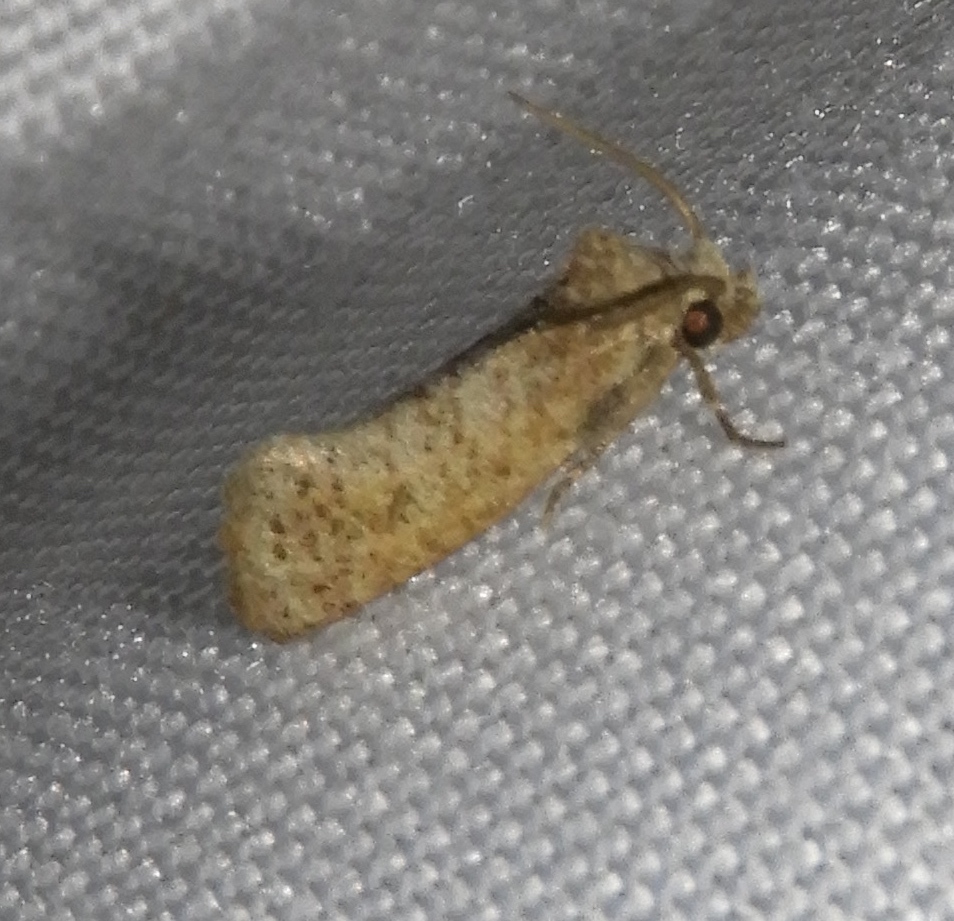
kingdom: Animalia
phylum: Arthropoda
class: Insecta
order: Lepidoptera
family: Tineidae
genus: Acrolophus
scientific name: Acrolophus forbesi
